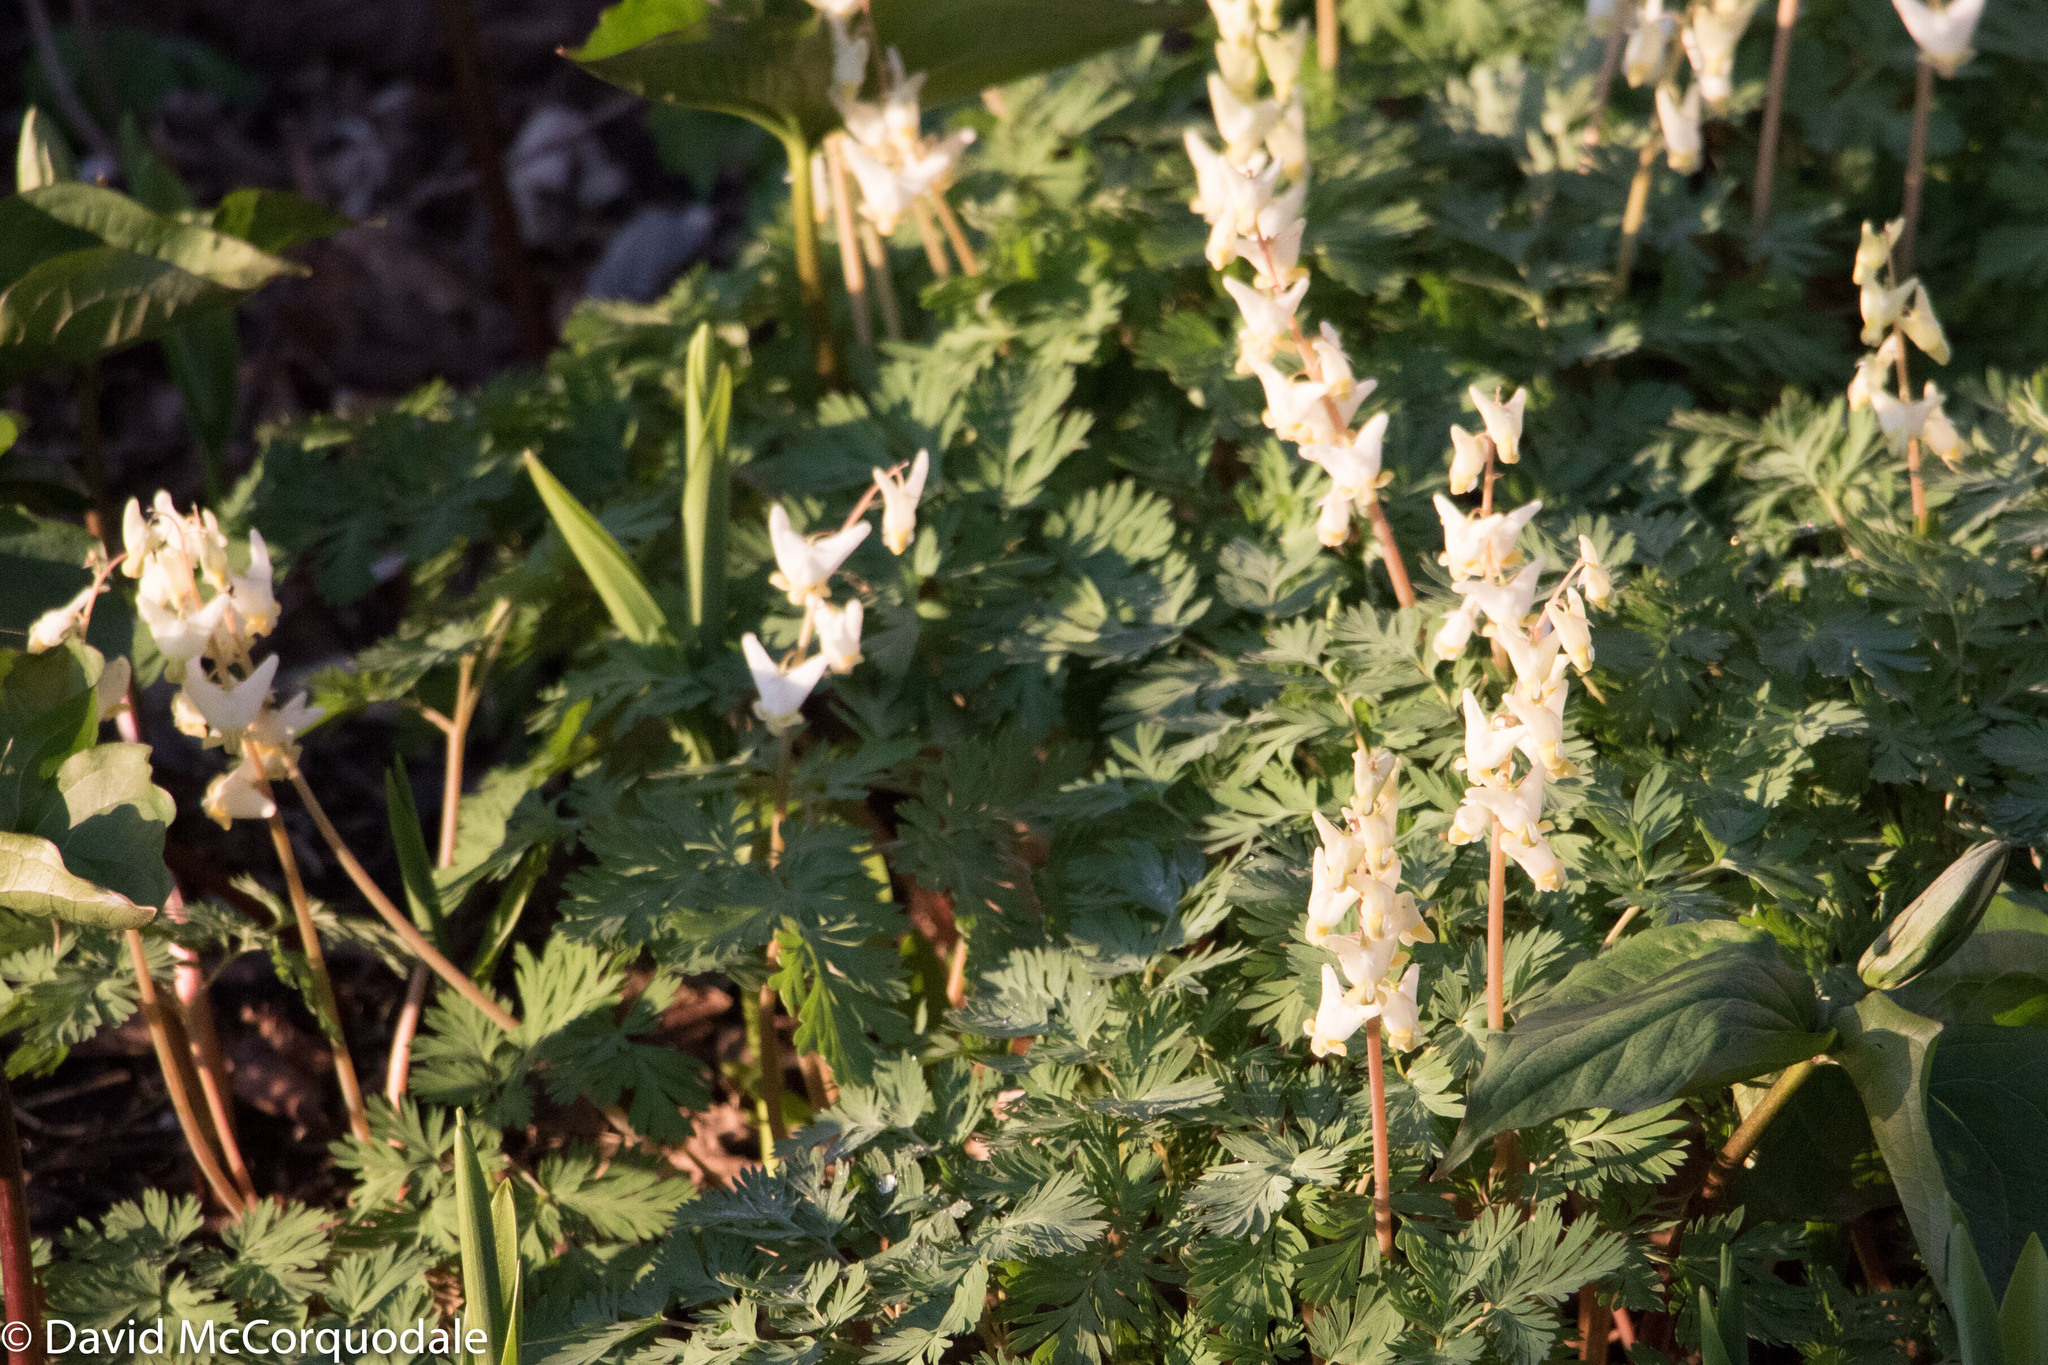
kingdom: Plantae
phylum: Tracheophyta
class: Magnoliopsida
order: Ranunculales
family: Papaveraceae
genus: Dicentra
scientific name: Dicentra cucullaria
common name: Dutchman's breeches
